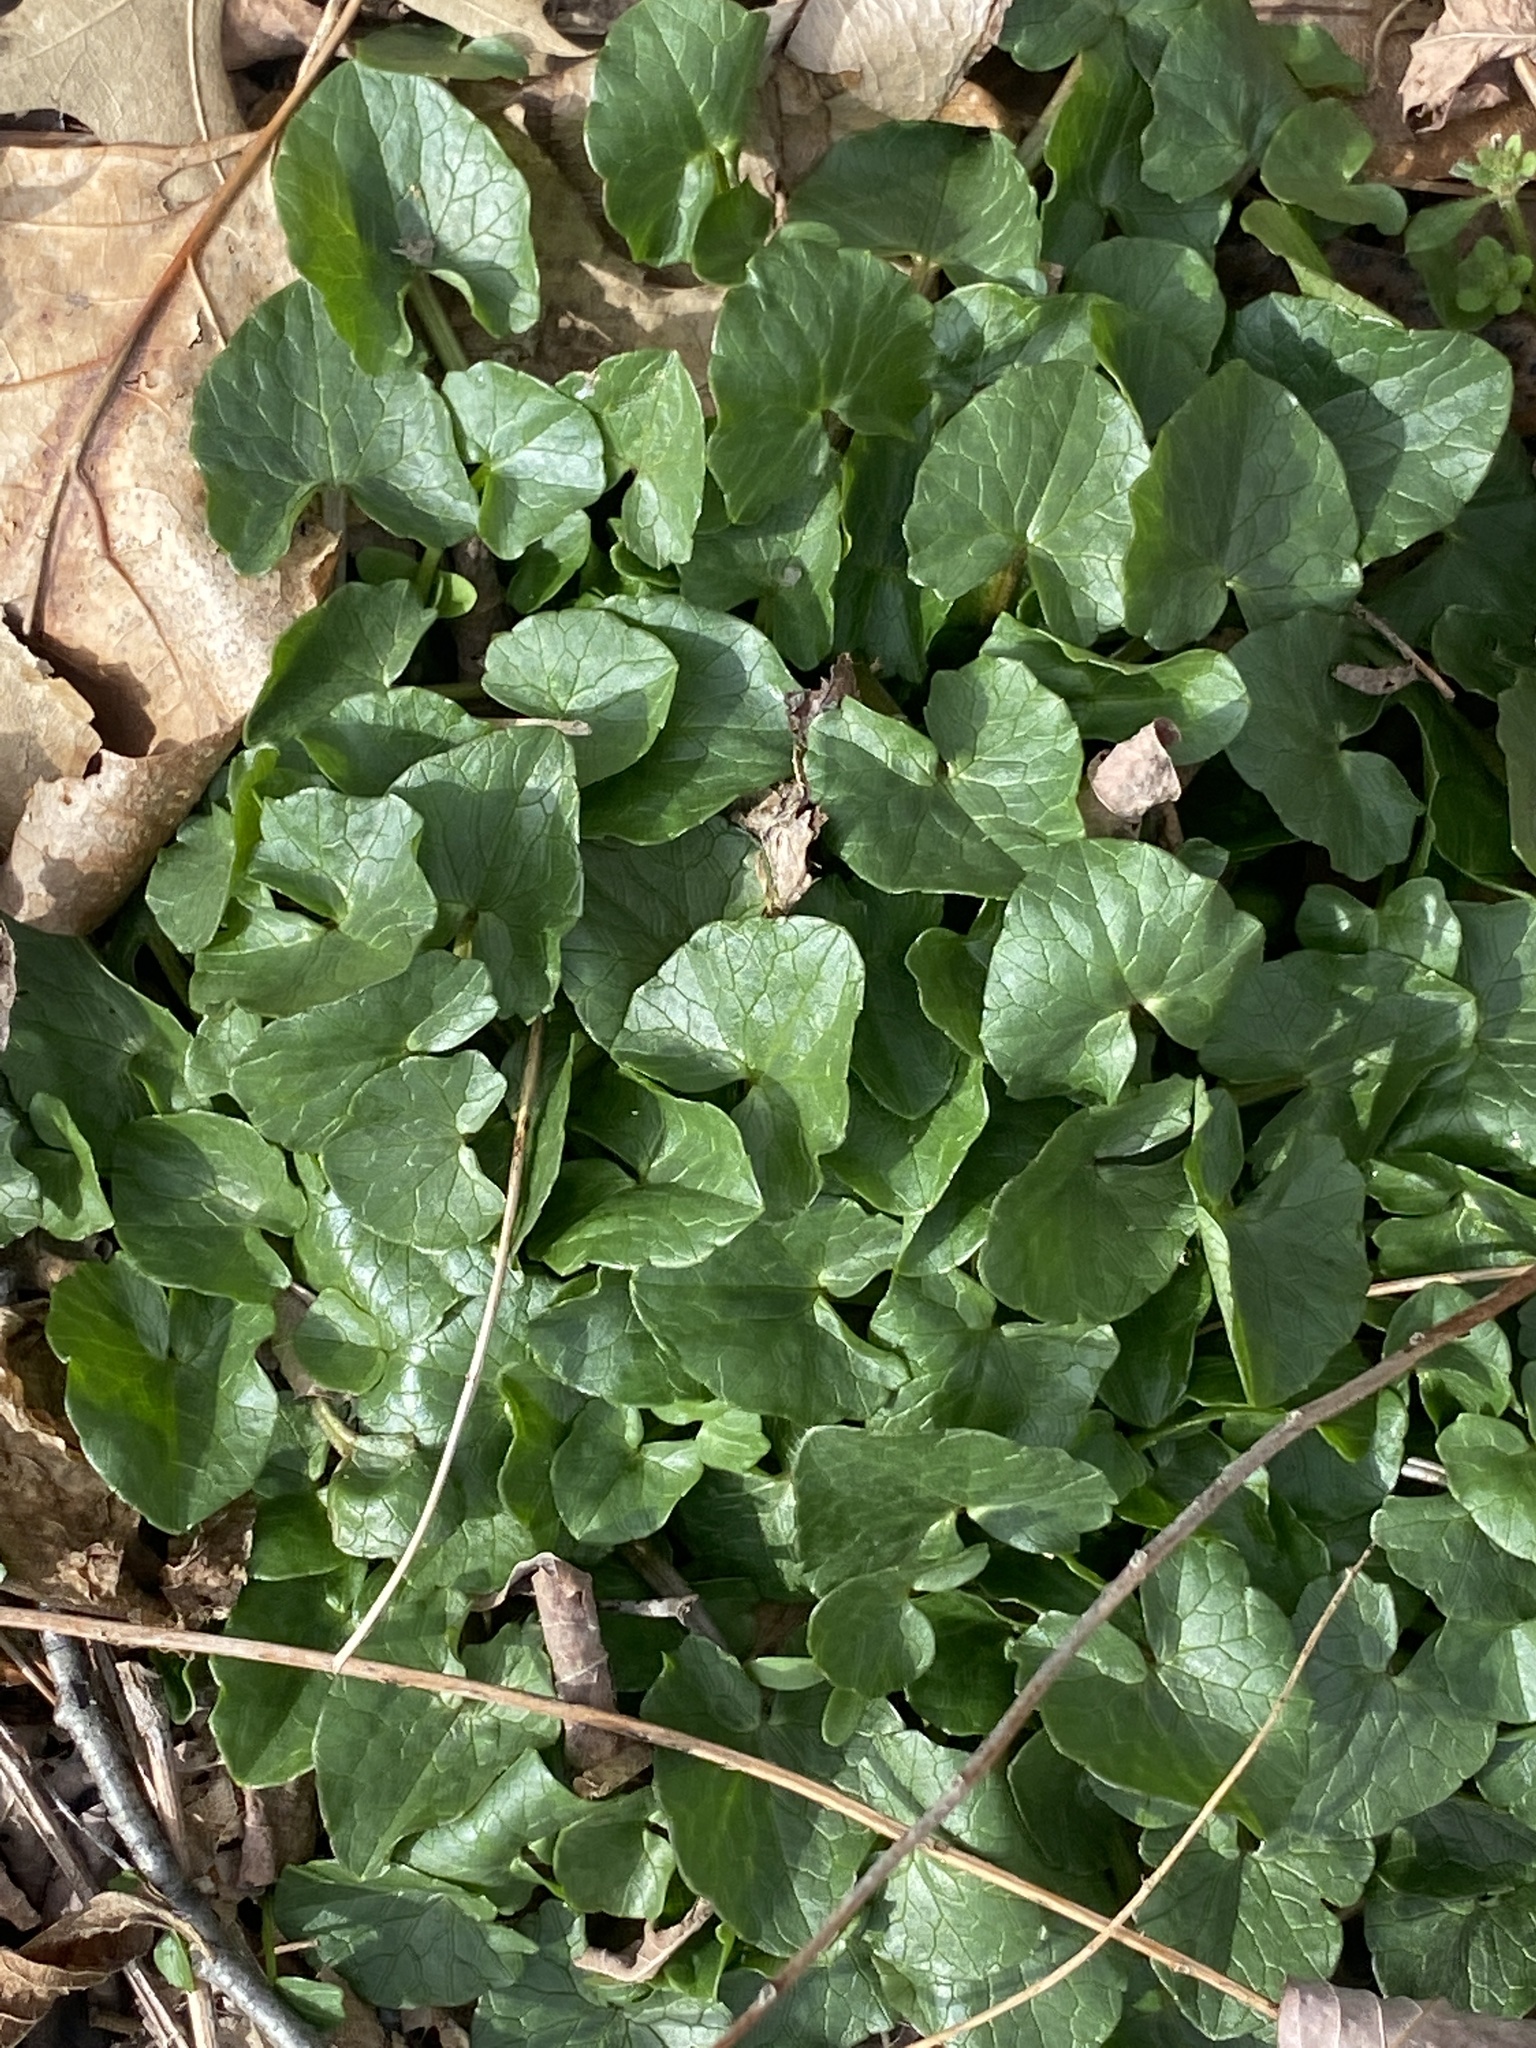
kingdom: Plantae
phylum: Tracheophyta
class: Magnoliopsida
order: Ranunculales
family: Ranunculaceae
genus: Ficaria
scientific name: Ficaria verna
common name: Lesser celandine
